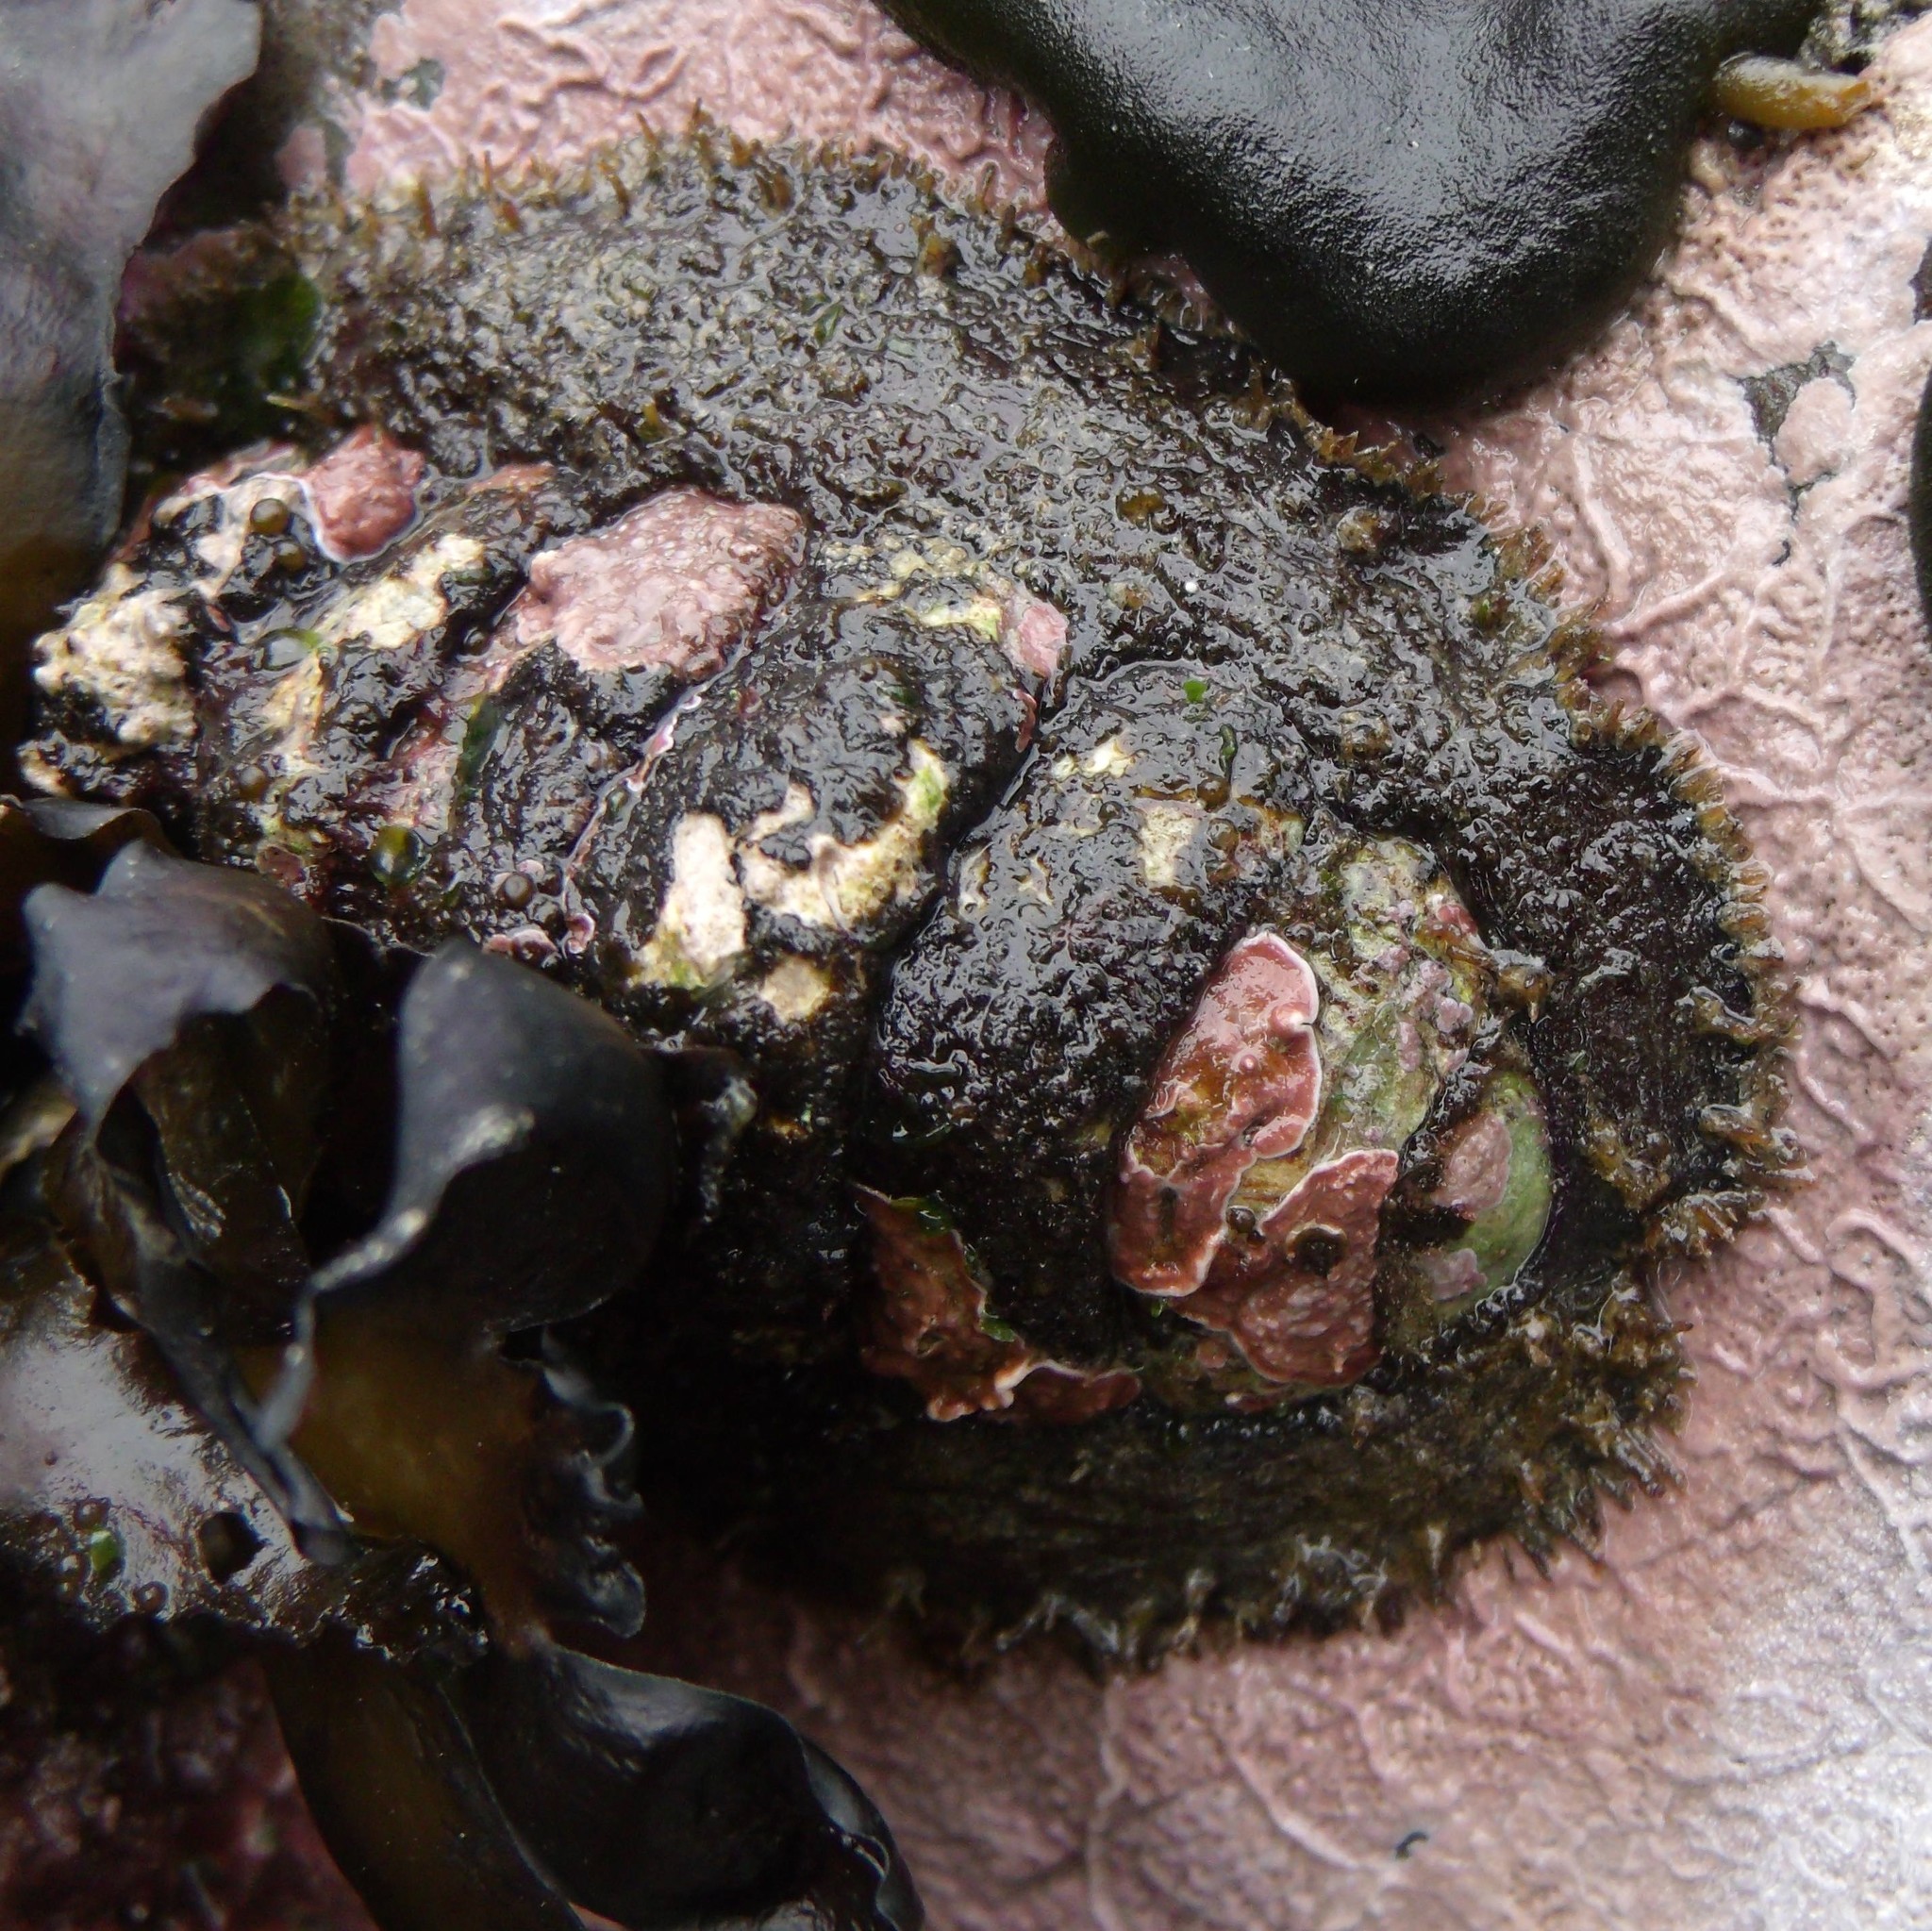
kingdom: Animalia
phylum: Mollusca
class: Polyplacophora
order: Chitonida
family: Mopaliidae
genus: Plaxiphora
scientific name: Plaxiphora biramosa
